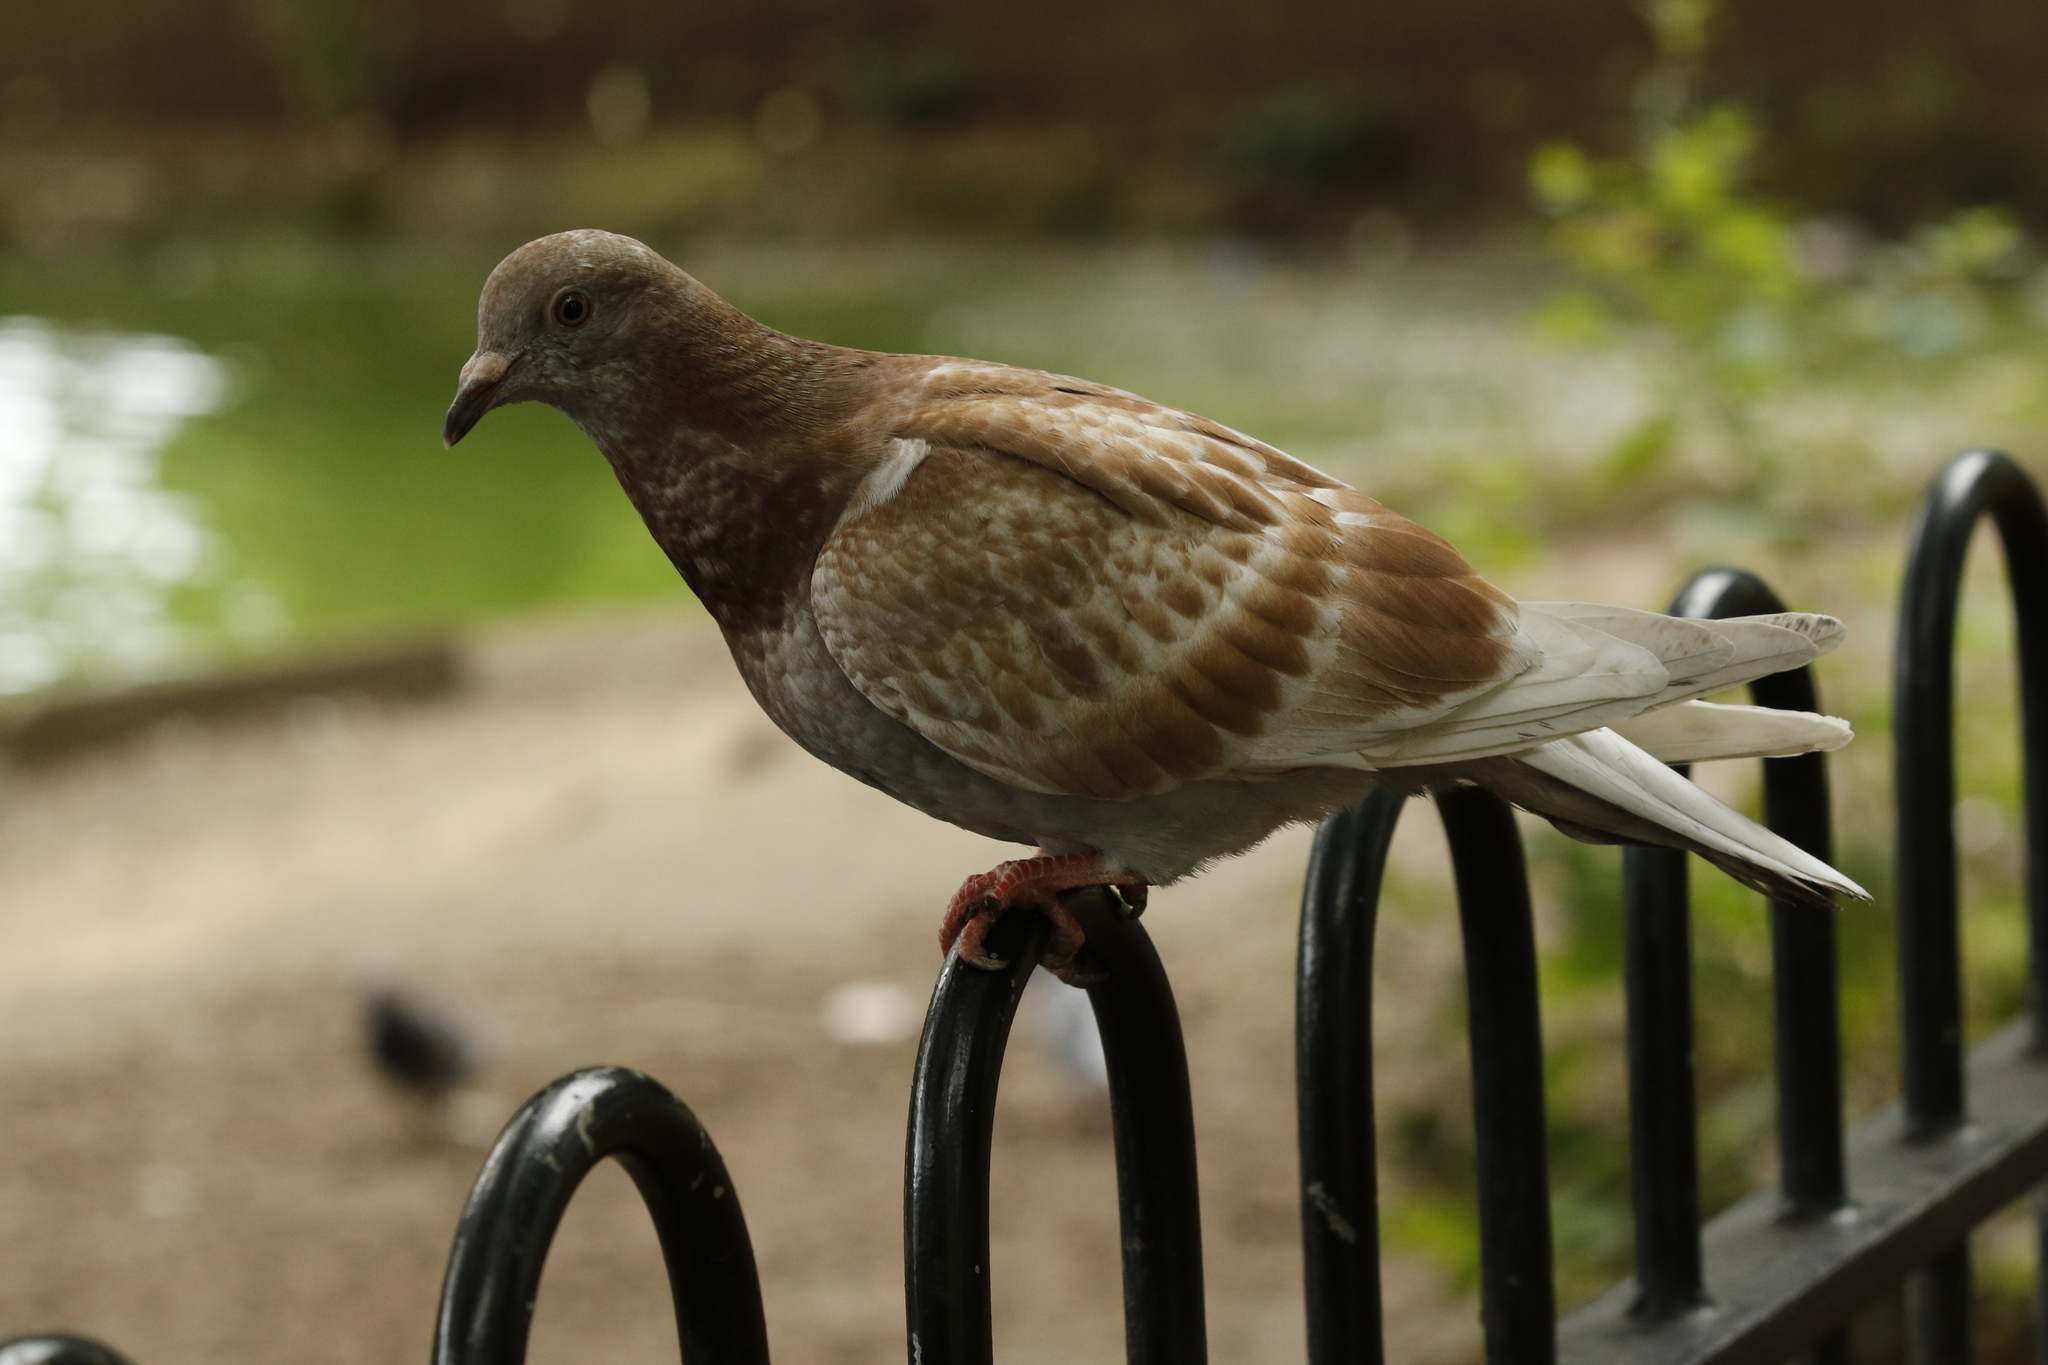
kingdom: Animalia
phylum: Chordata
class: Aves
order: Columbiformes
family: Columbidae
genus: Columba
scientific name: Columba livia
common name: Rock pigeon
